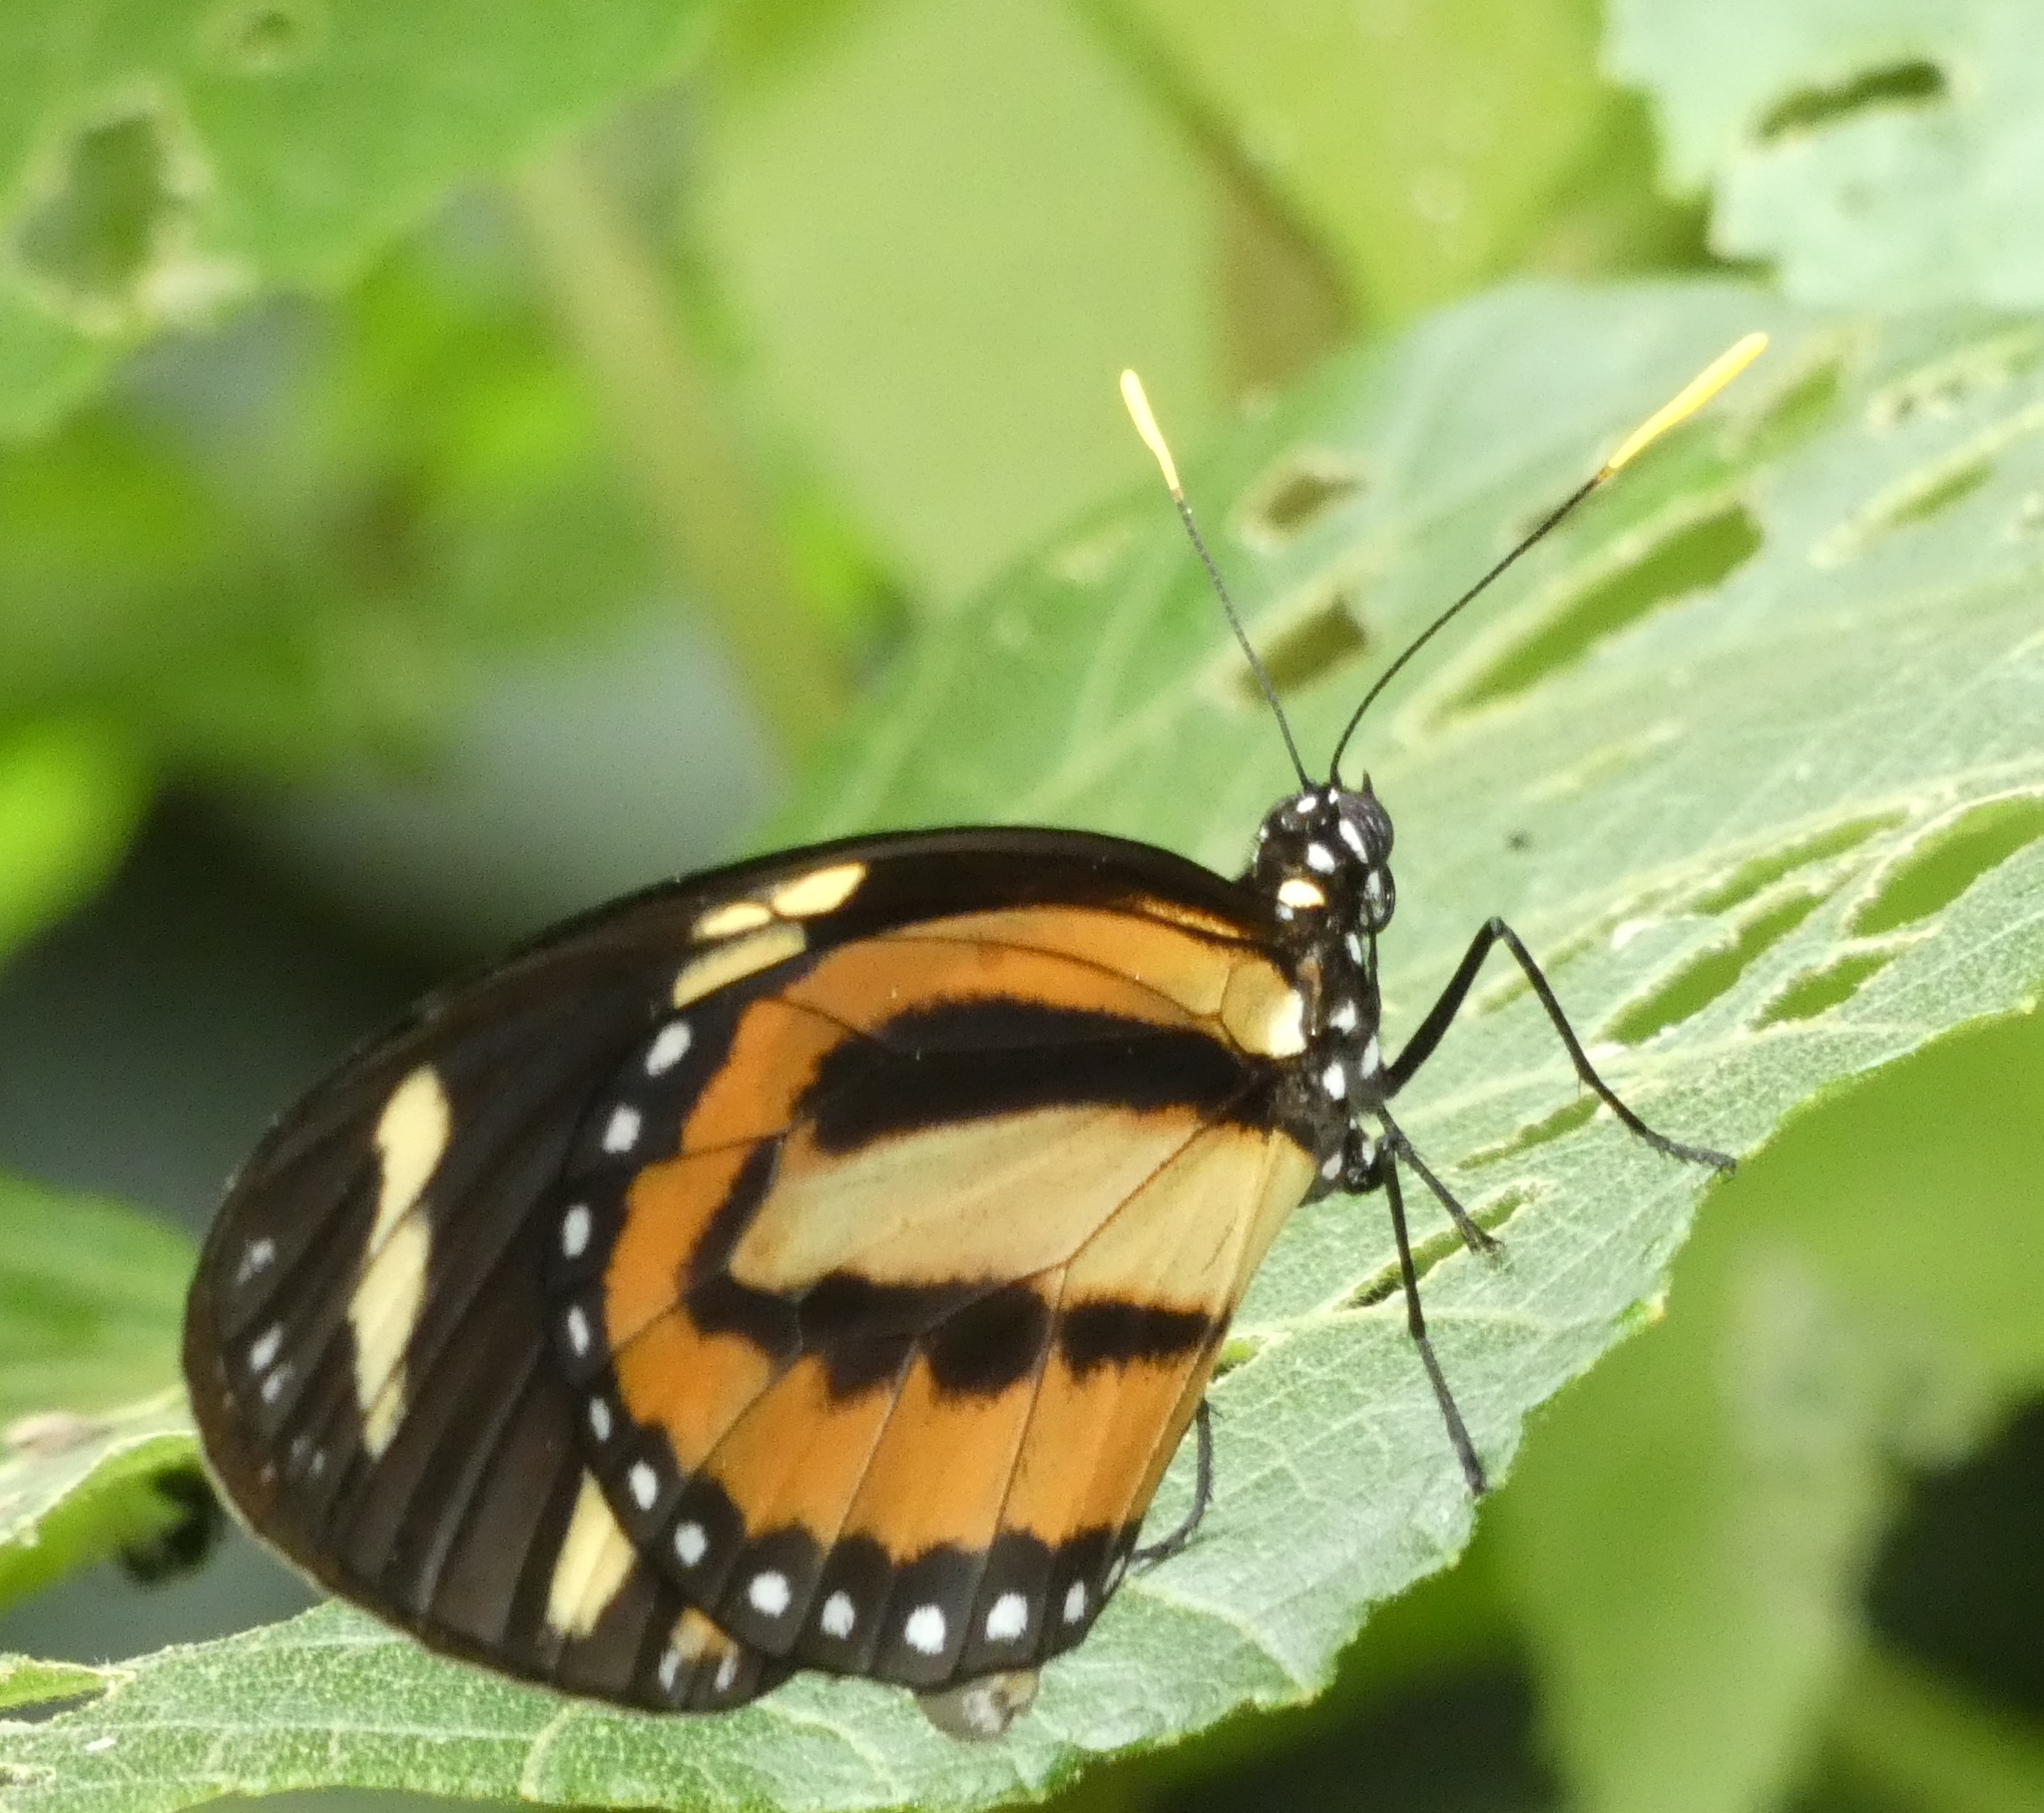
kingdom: Animalia
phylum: Arthropoda
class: Insecta
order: Lepidoptera
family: Nymphalidae
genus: Lycorea
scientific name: Lycorea cleobaea
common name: Tiger mimic-queen
